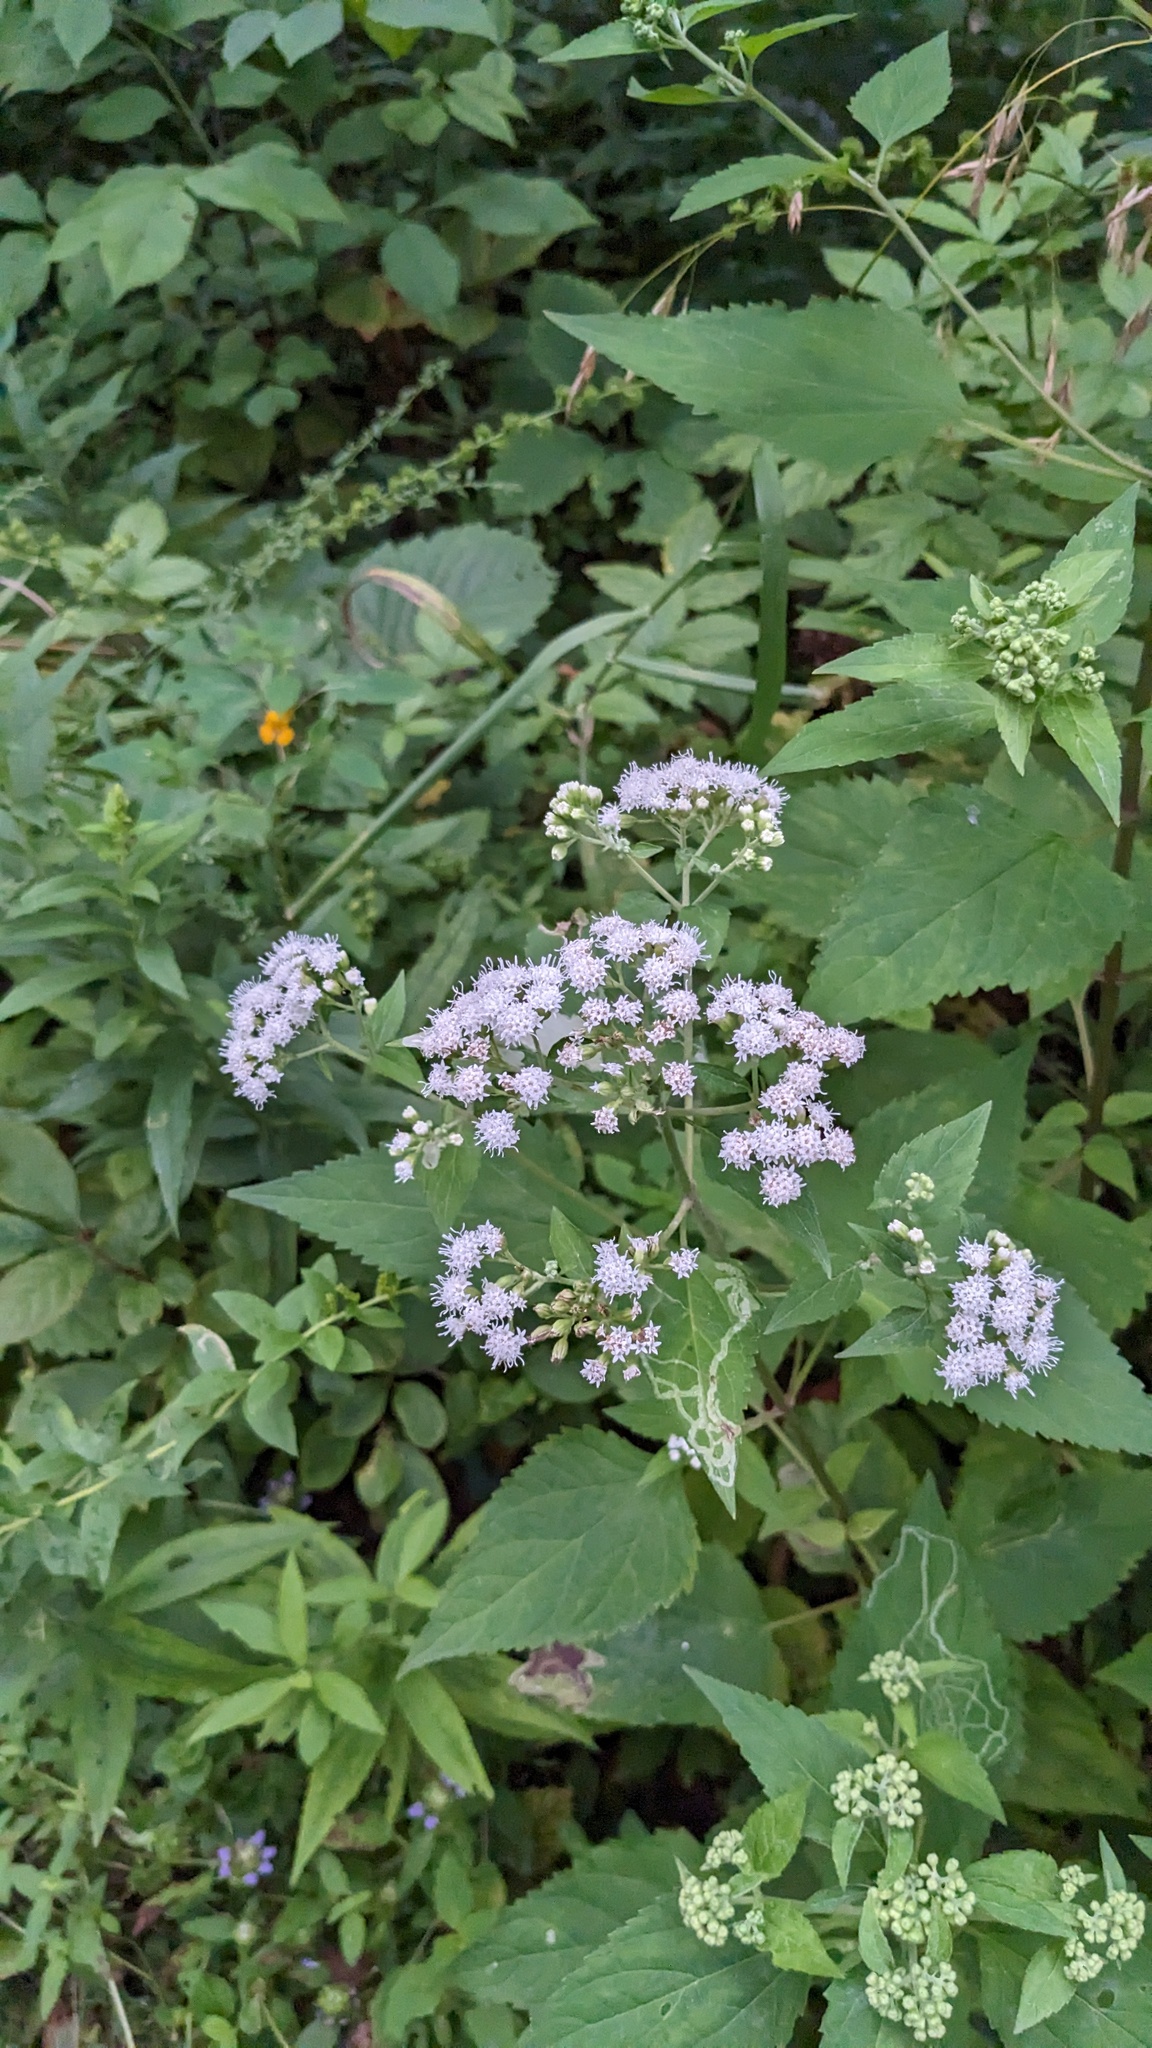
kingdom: Plantae
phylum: Tracheophyta
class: Magnoliopsida
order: Asterales
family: Asteraceae
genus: Ageratina
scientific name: Ageratina altissima
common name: White snakeroot
